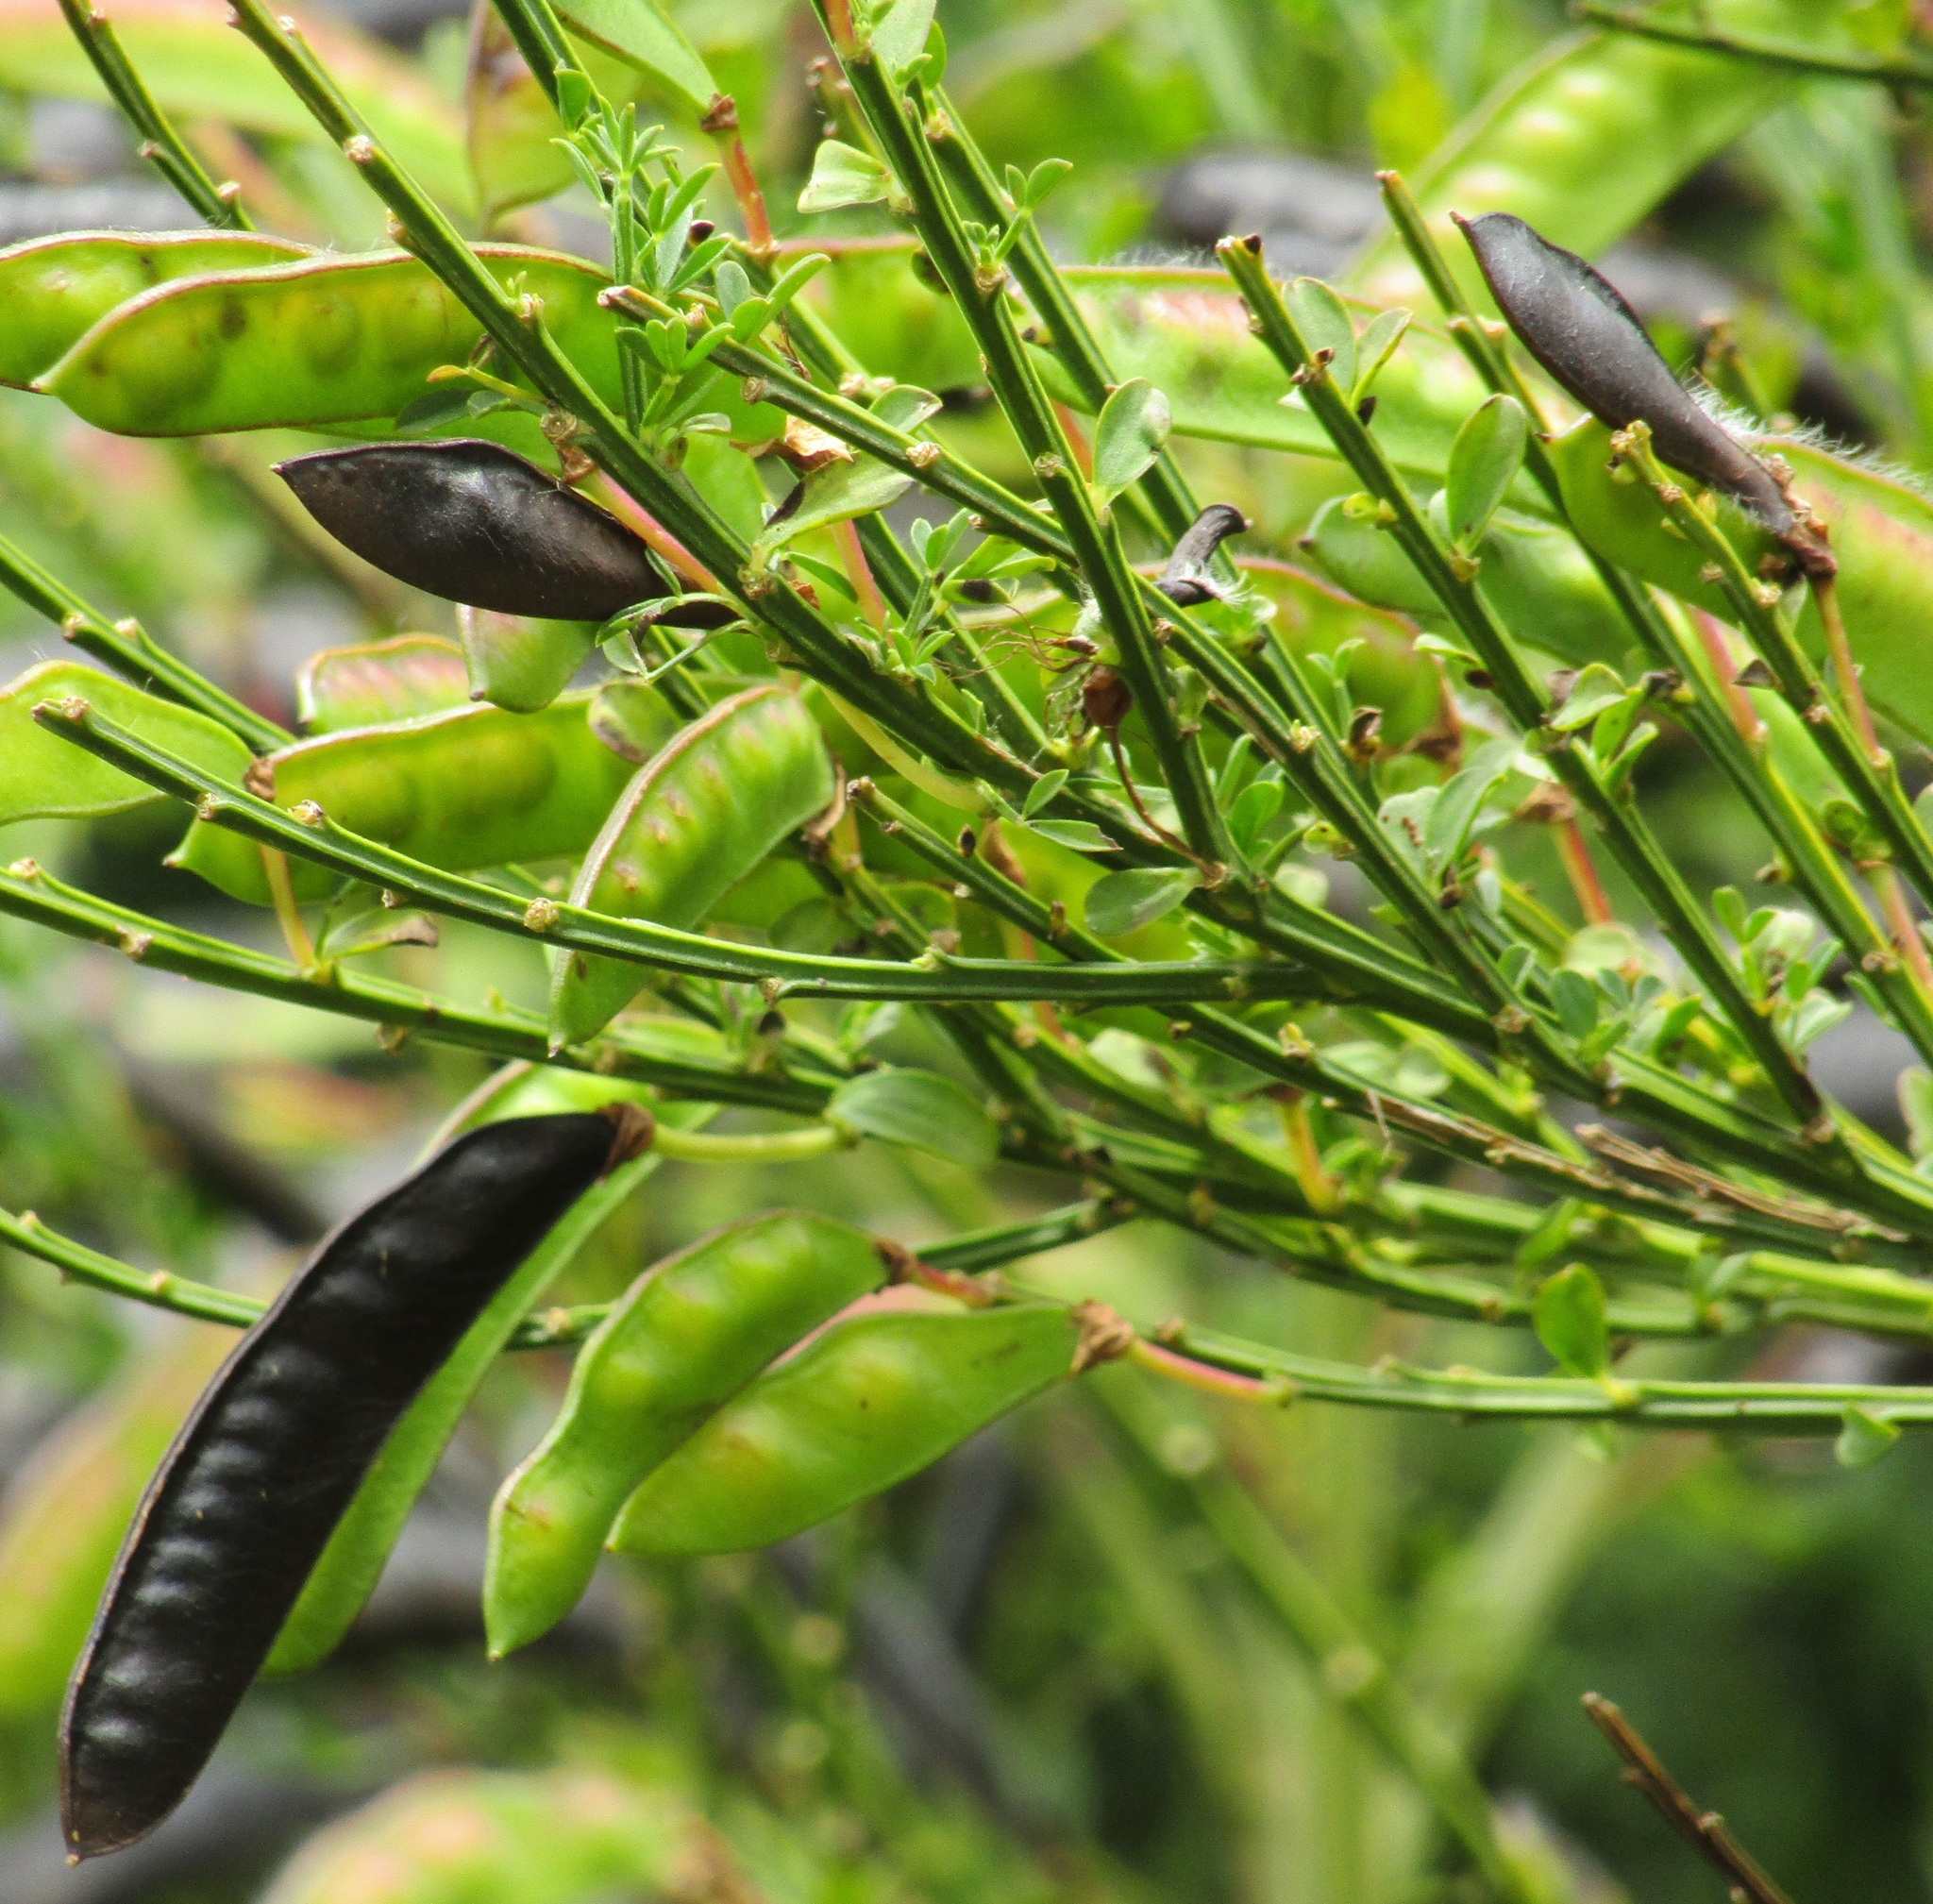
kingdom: Plantae
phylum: Tracheophyta
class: Magnoliopsida
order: Fabales
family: Fabaceae
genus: Cytisus
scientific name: Cytisus scoparius
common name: Scotch broom
